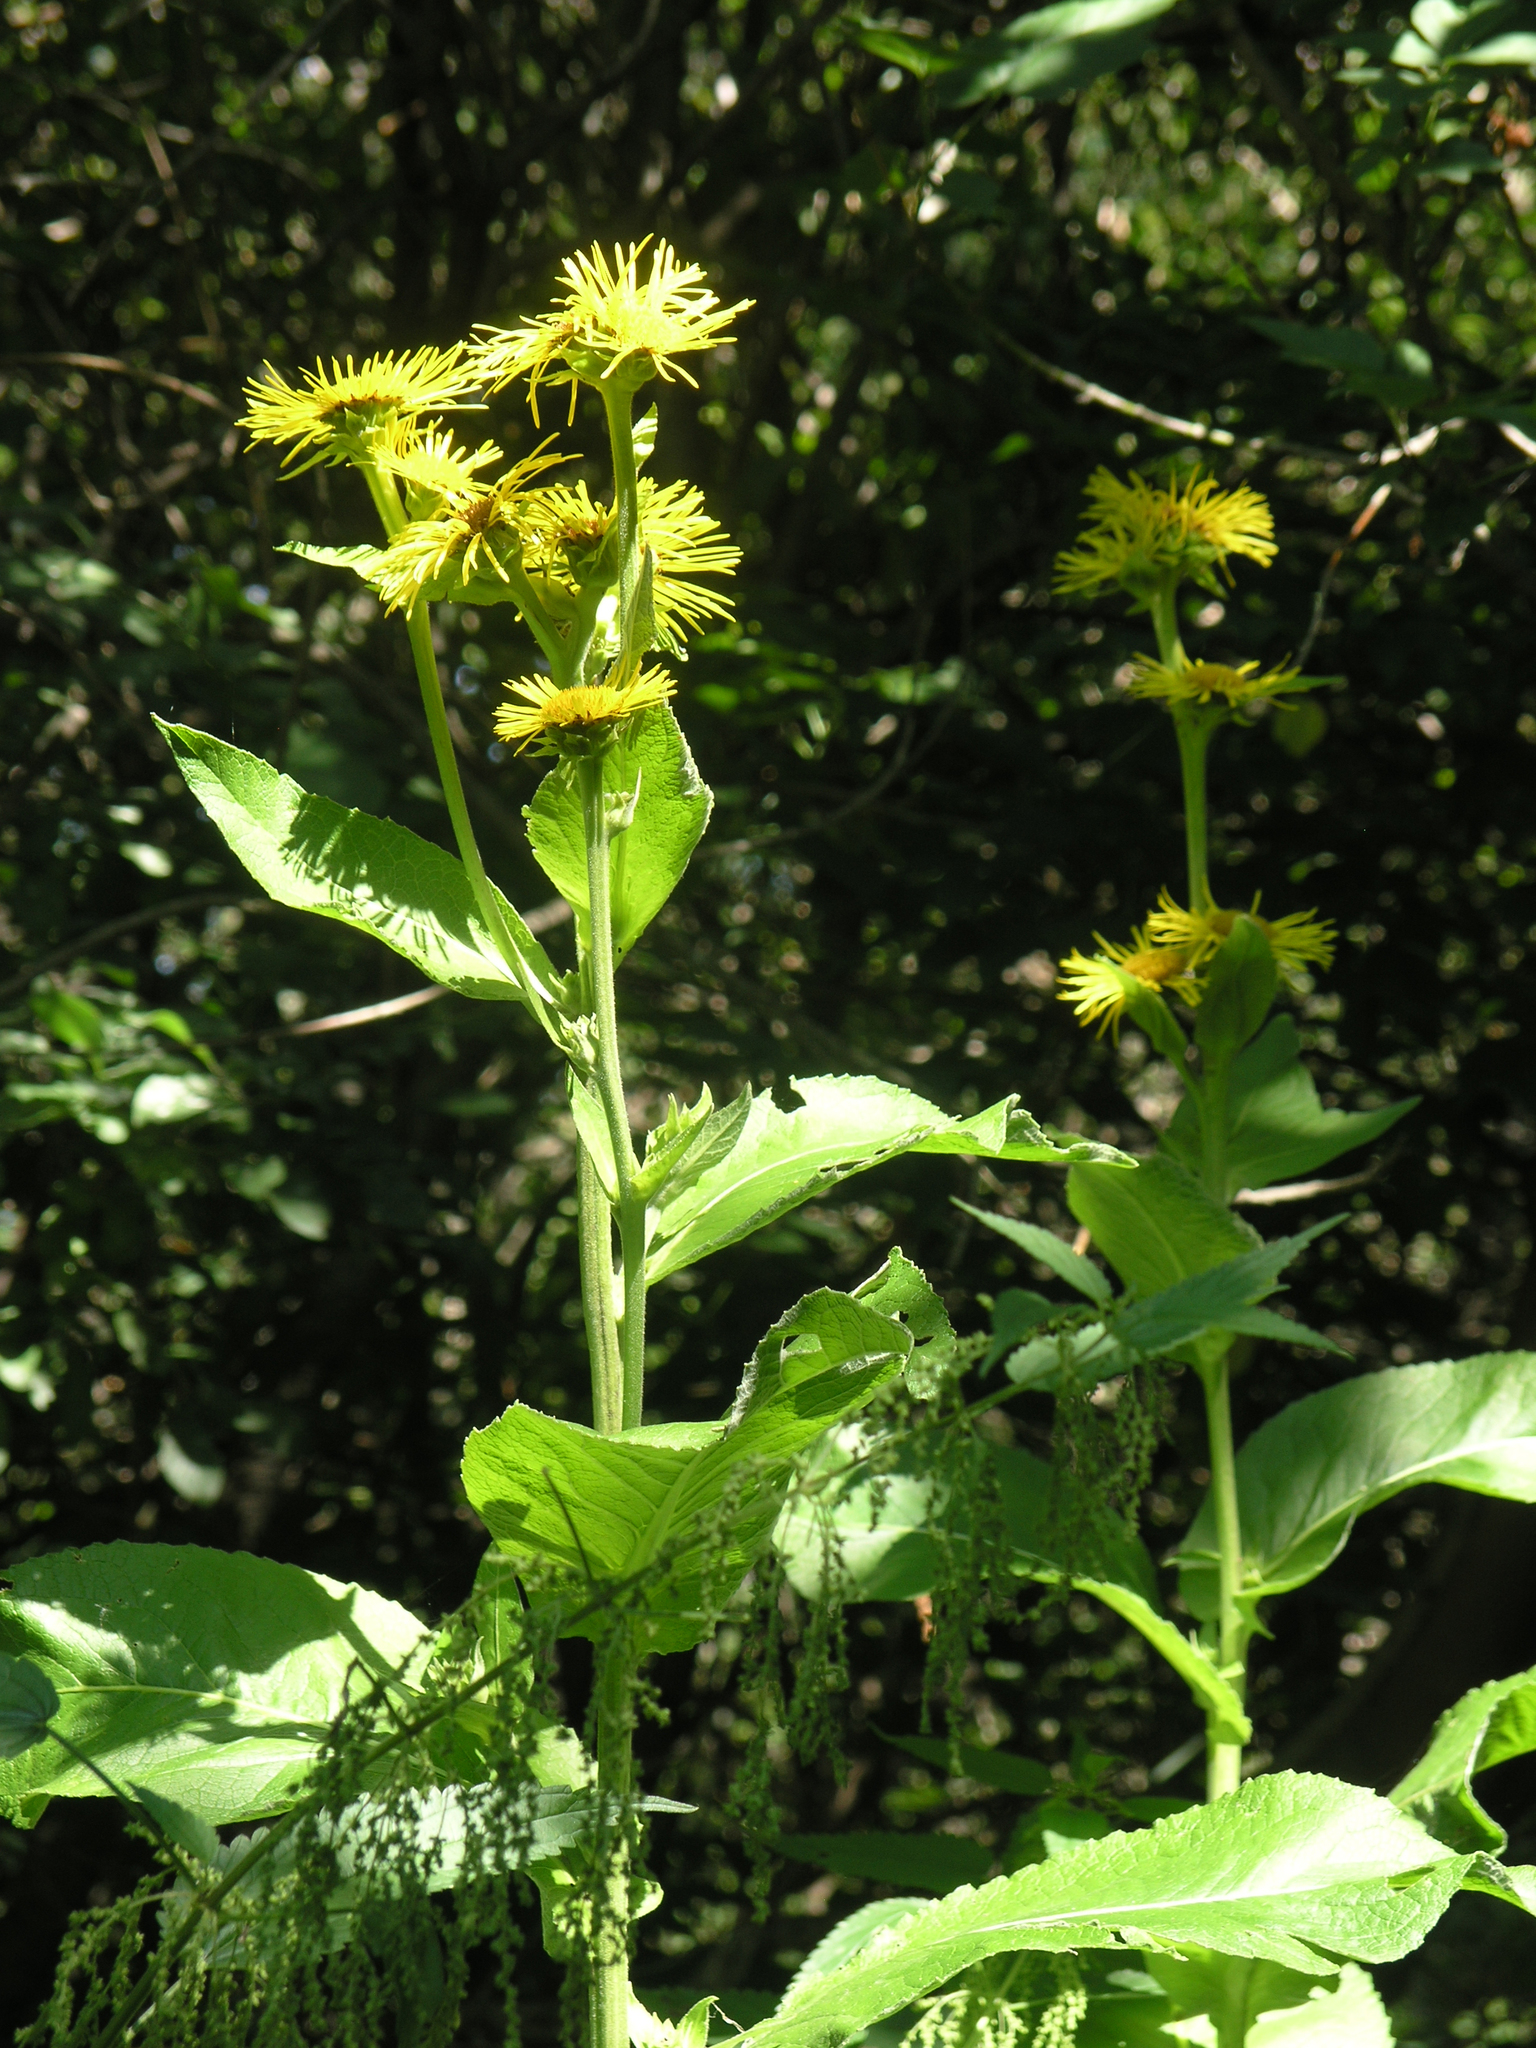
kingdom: Plantae
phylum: Tracheophyta
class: Magnoliopsida
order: Asterales
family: Asteraceae
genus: Inula
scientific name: Inula helenium
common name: Elecampane
